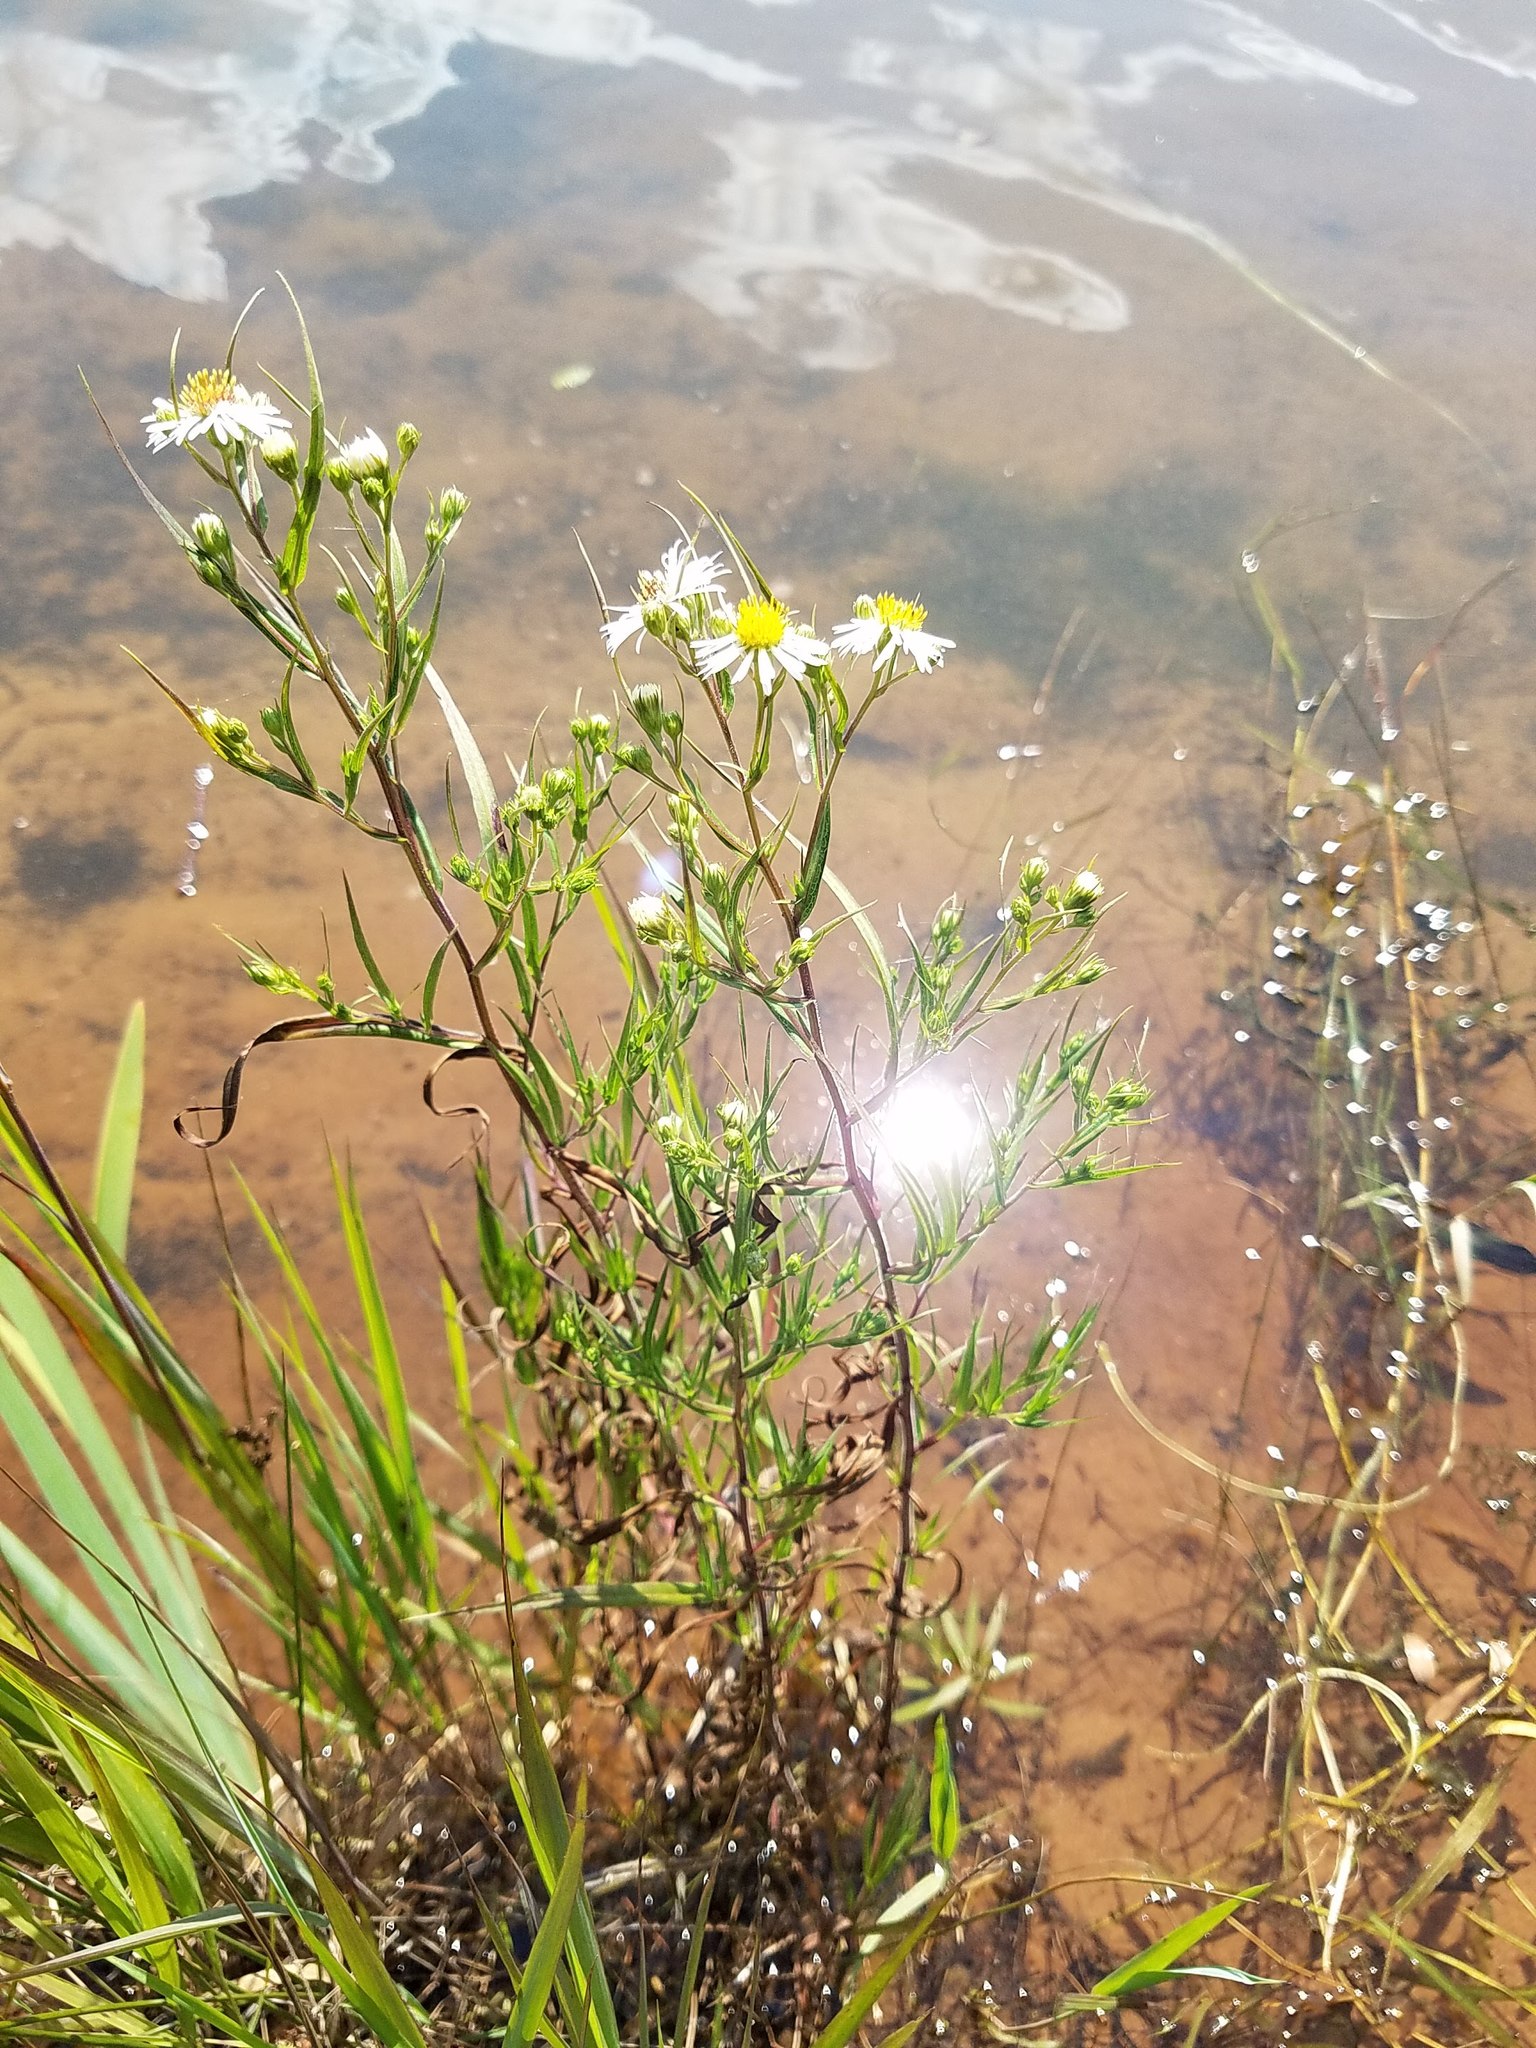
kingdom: Plantae
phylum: Tracheophyta
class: Magnoliopsida
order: Asterales
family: Asteraceae
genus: Symphyotrichum
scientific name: Symphyotrichum lanceolatum
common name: Panicled aster
